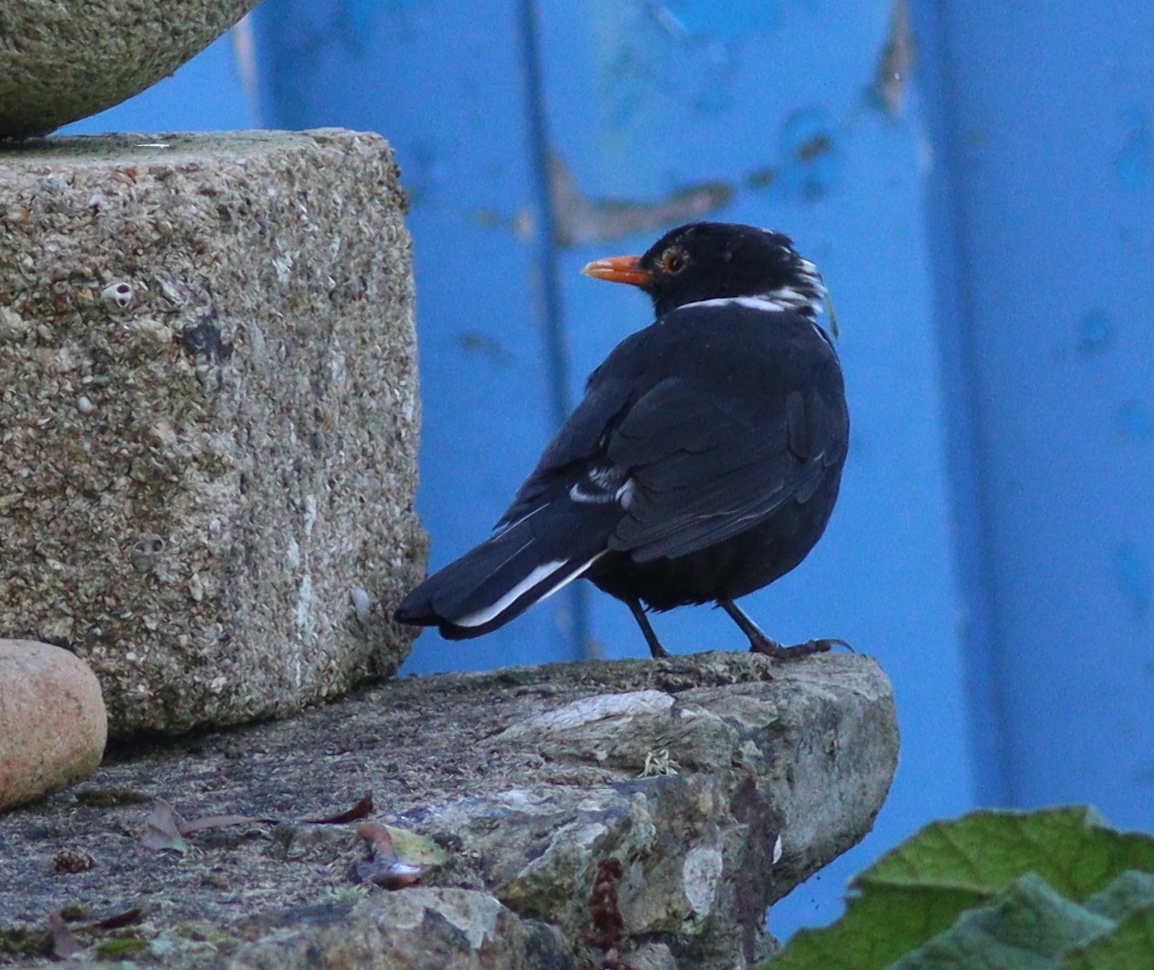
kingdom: Animalia
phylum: Chordata
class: Aves
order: Passeriformes
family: Turdidae
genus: Turdus
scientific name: Turdus merula
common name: Common blackbird
